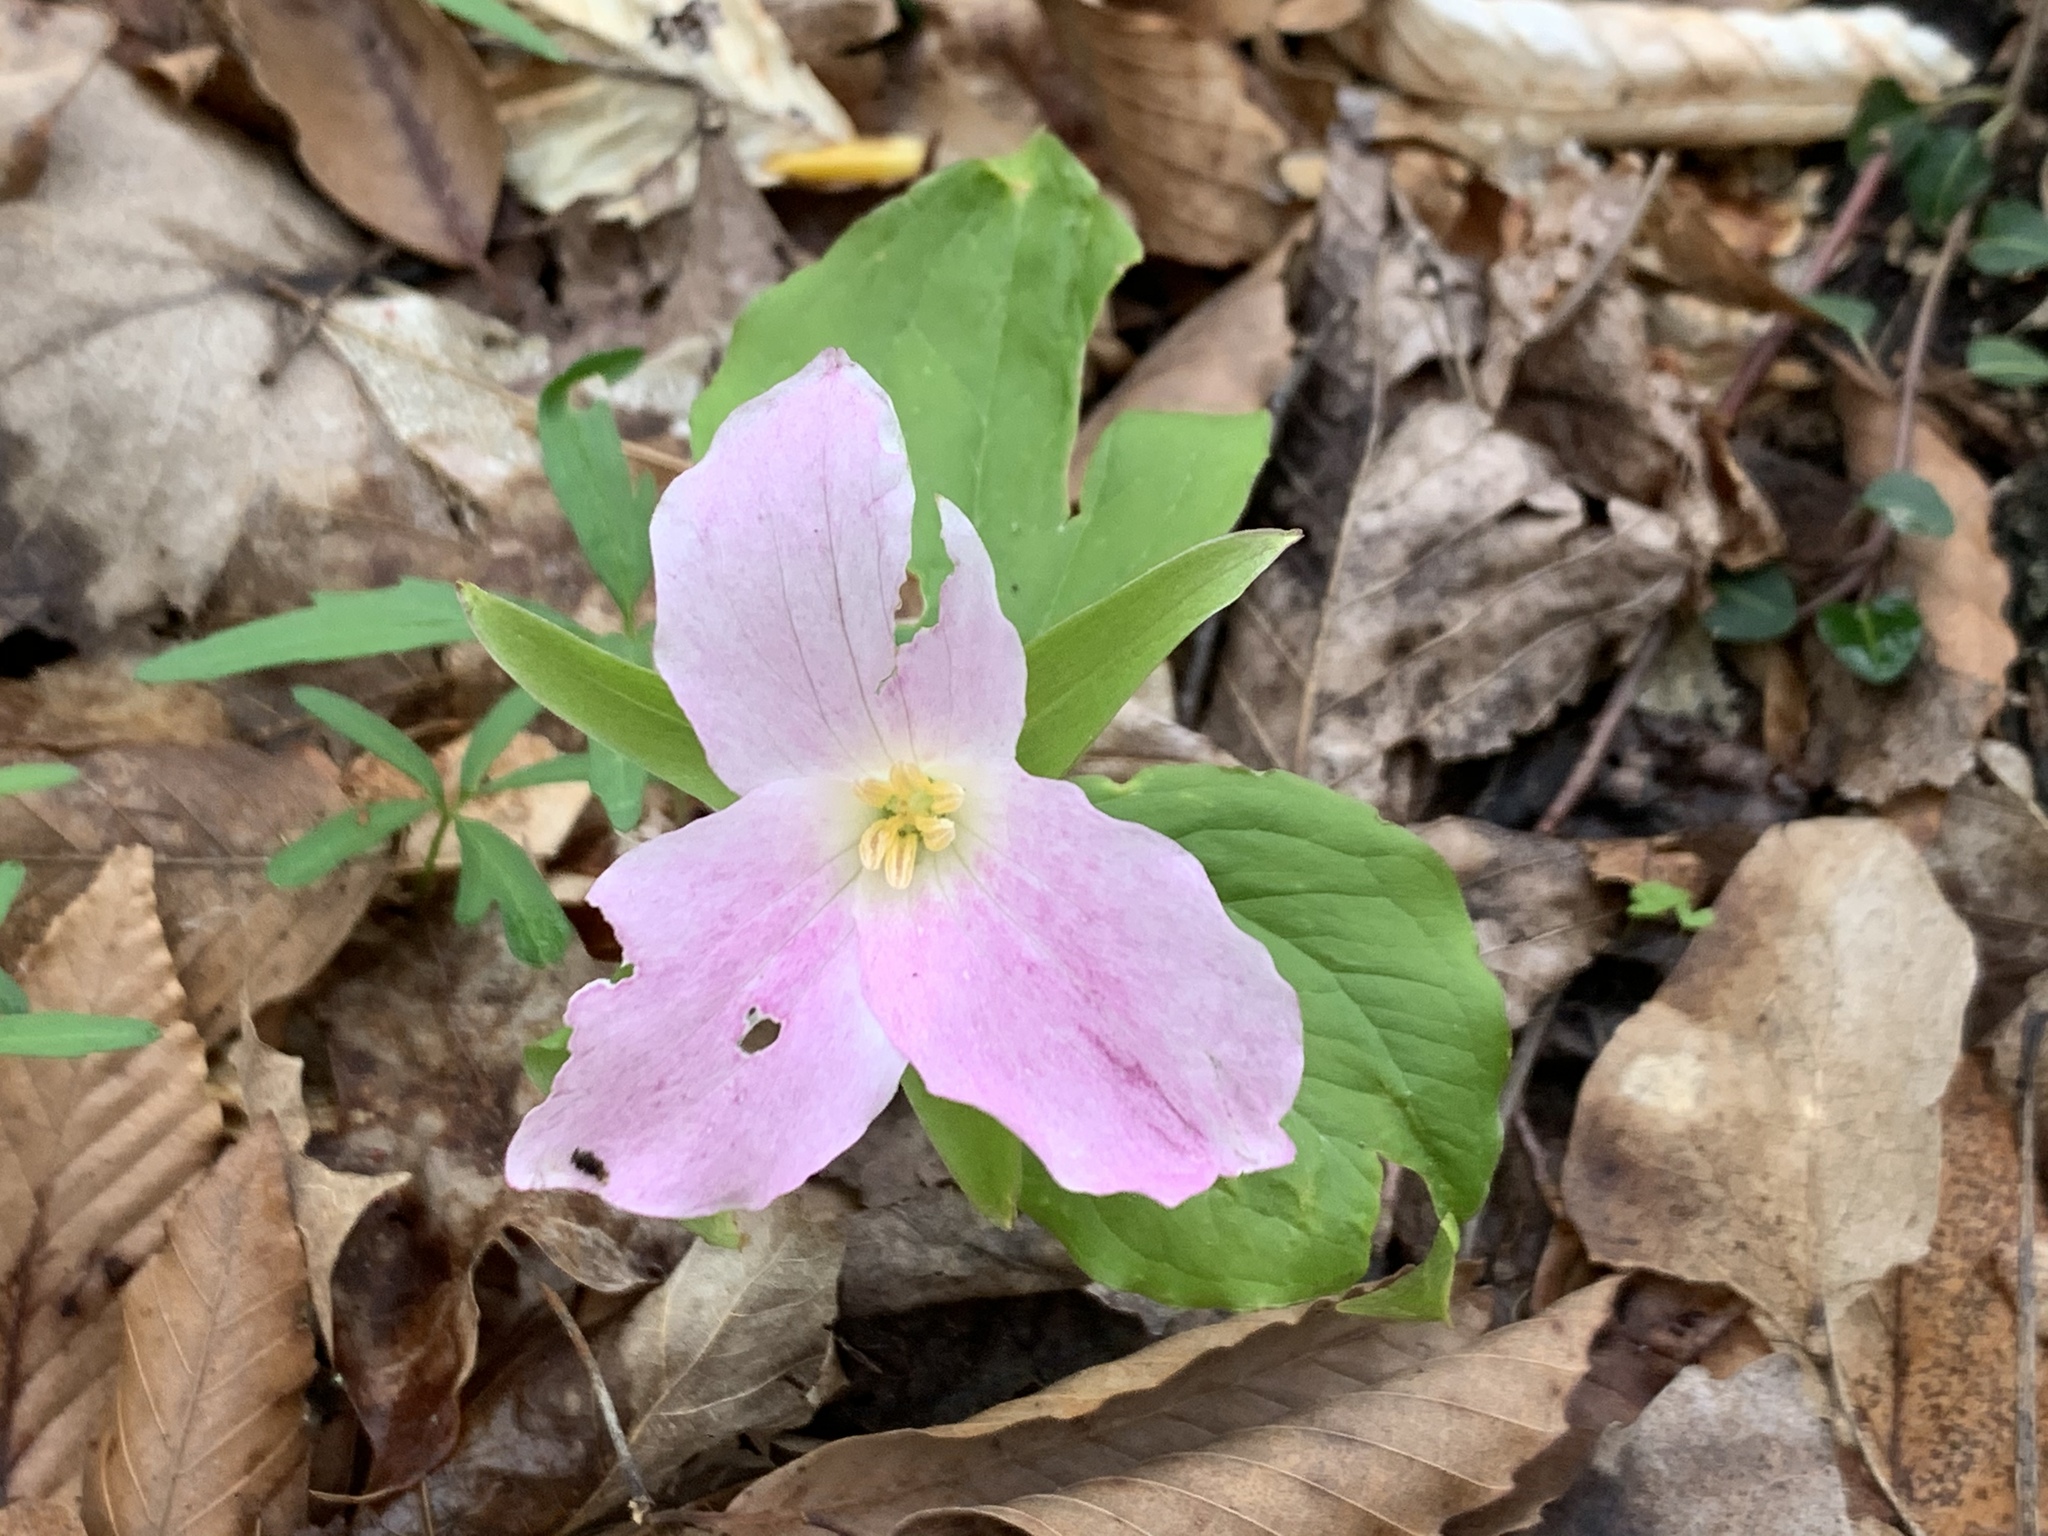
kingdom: Plantae
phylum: Tracheophyta
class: Liliopsida
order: Liliales
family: Melanthiaceae
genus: Trillium
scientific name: Trillium grandiflorum
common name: Great white trillium
